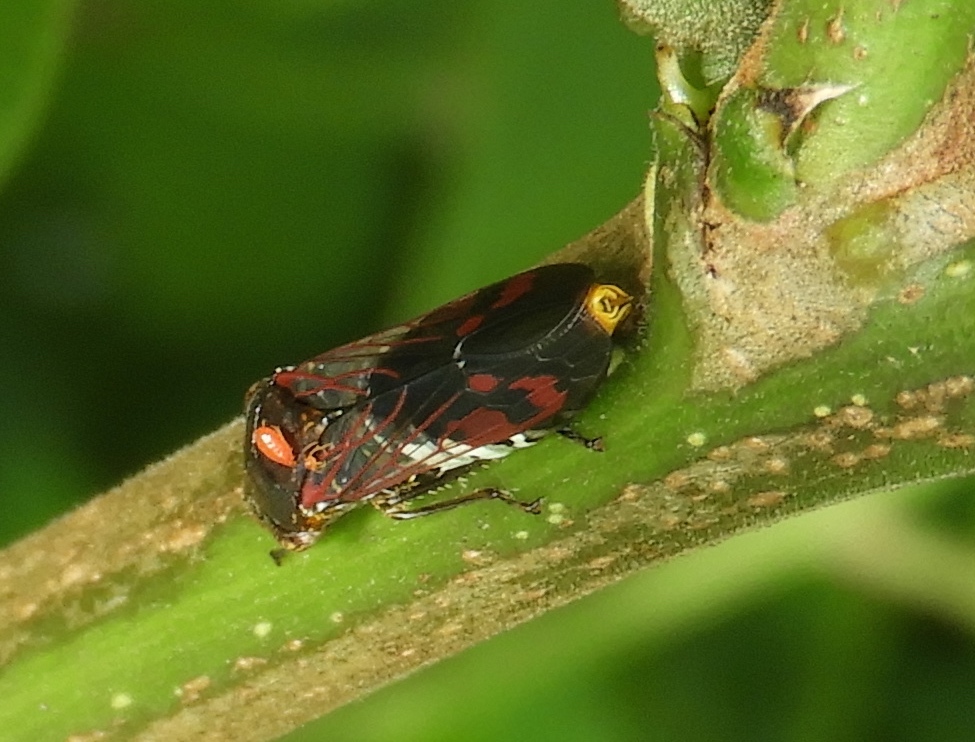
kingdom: Animalia
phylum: Arthropoda
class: Insecta
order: Hemiptera
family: Cicadellidae
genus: Homalodisca
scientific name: Homalodisca ichthyocephala
